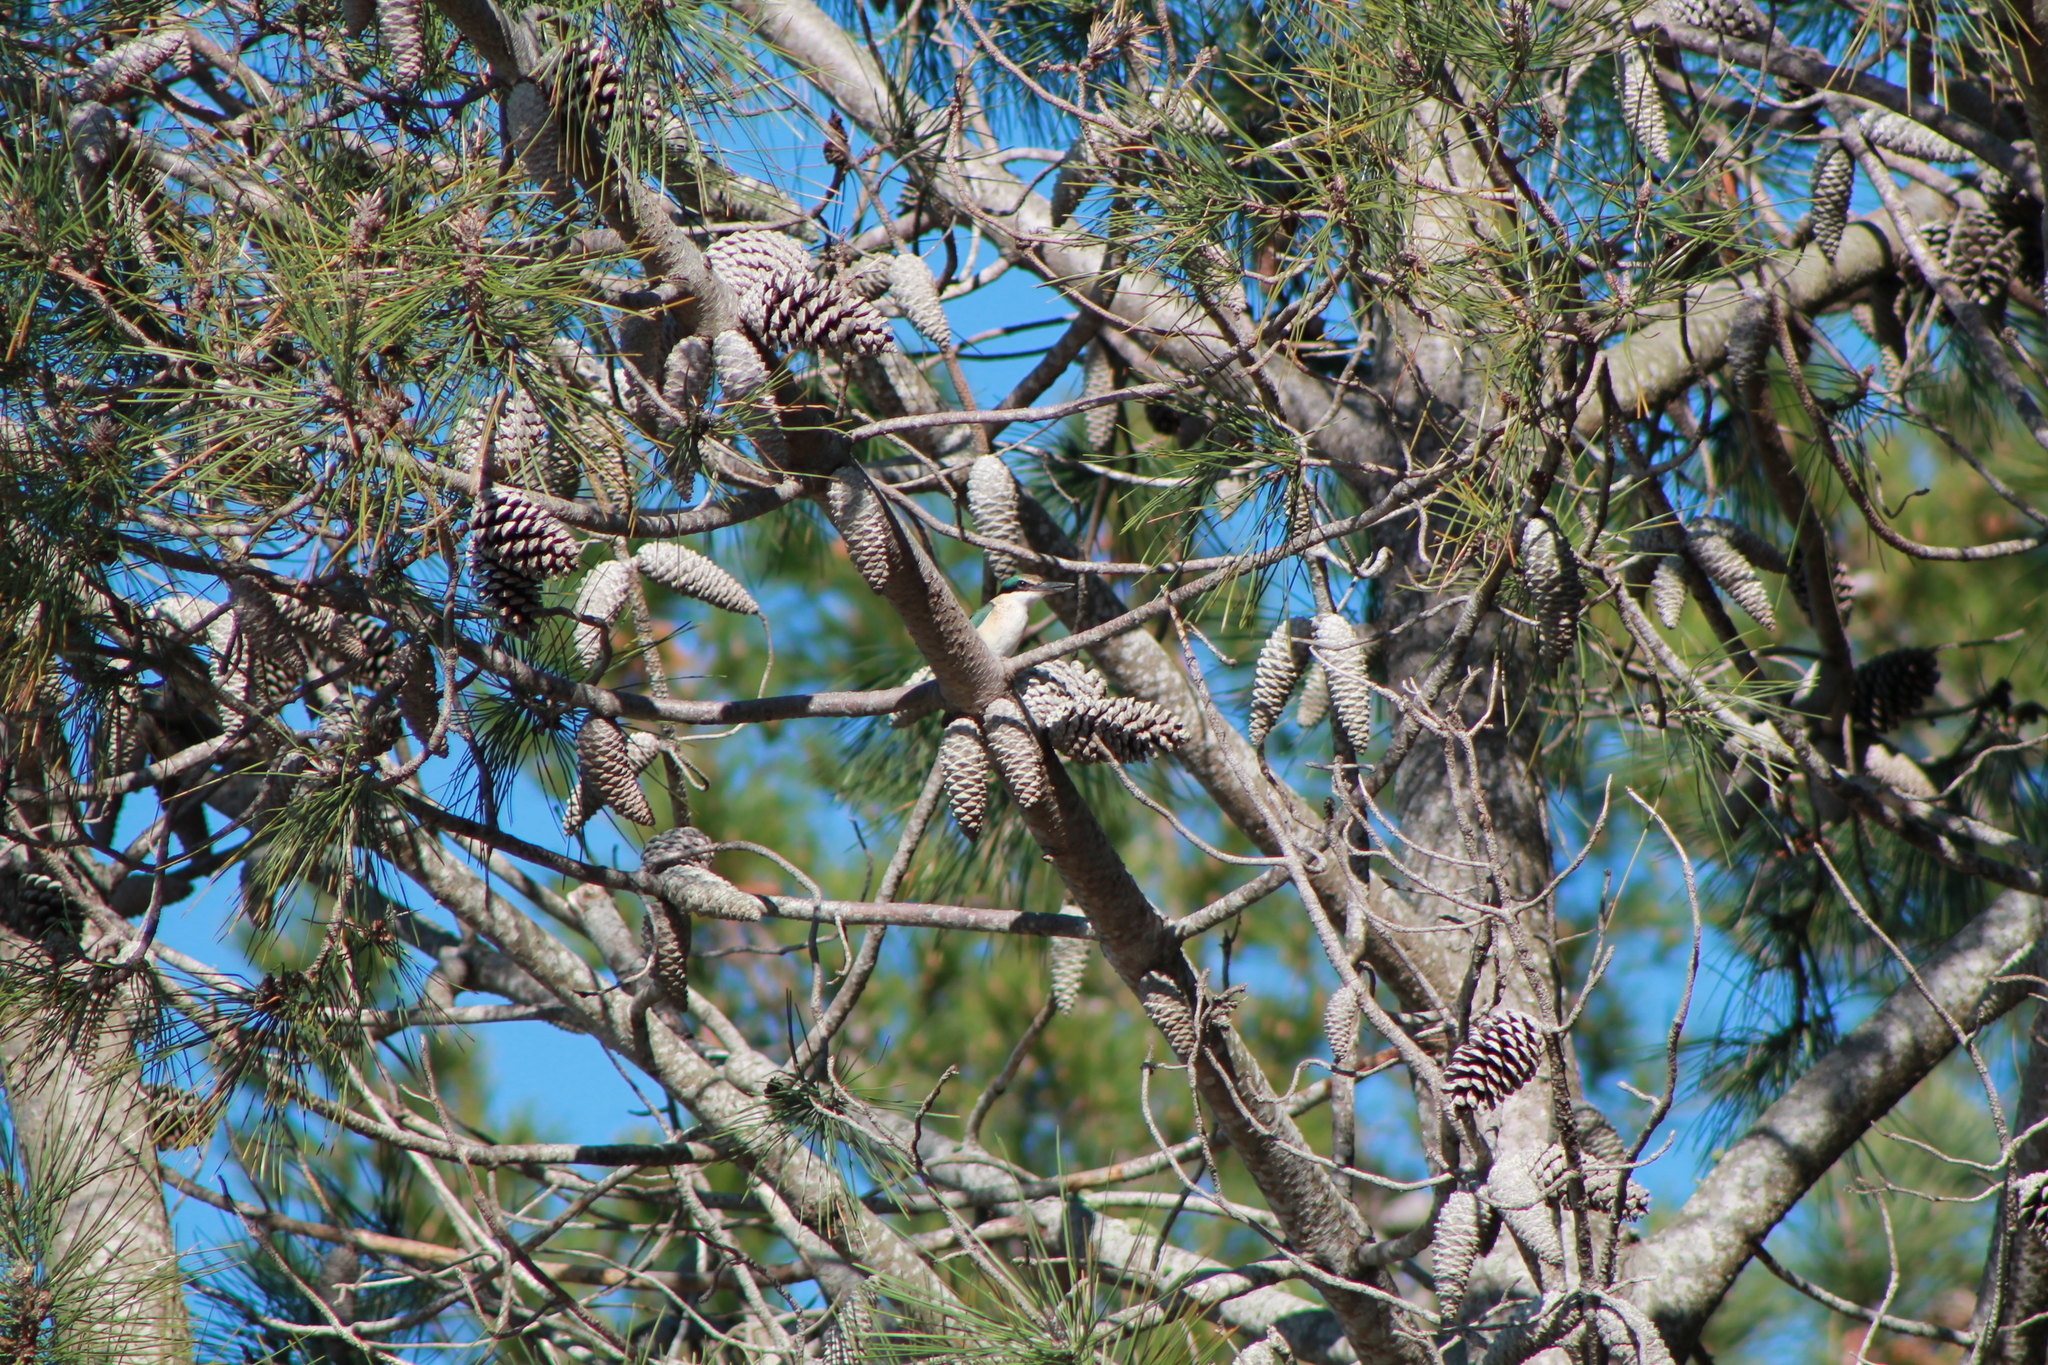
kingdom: Animalia
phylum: Chordata
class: Aves
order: Coraciiformes
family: Alcedinidae
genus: Todiramphus
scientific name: Todiramphus sanctus
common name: Sacred kingfisher
